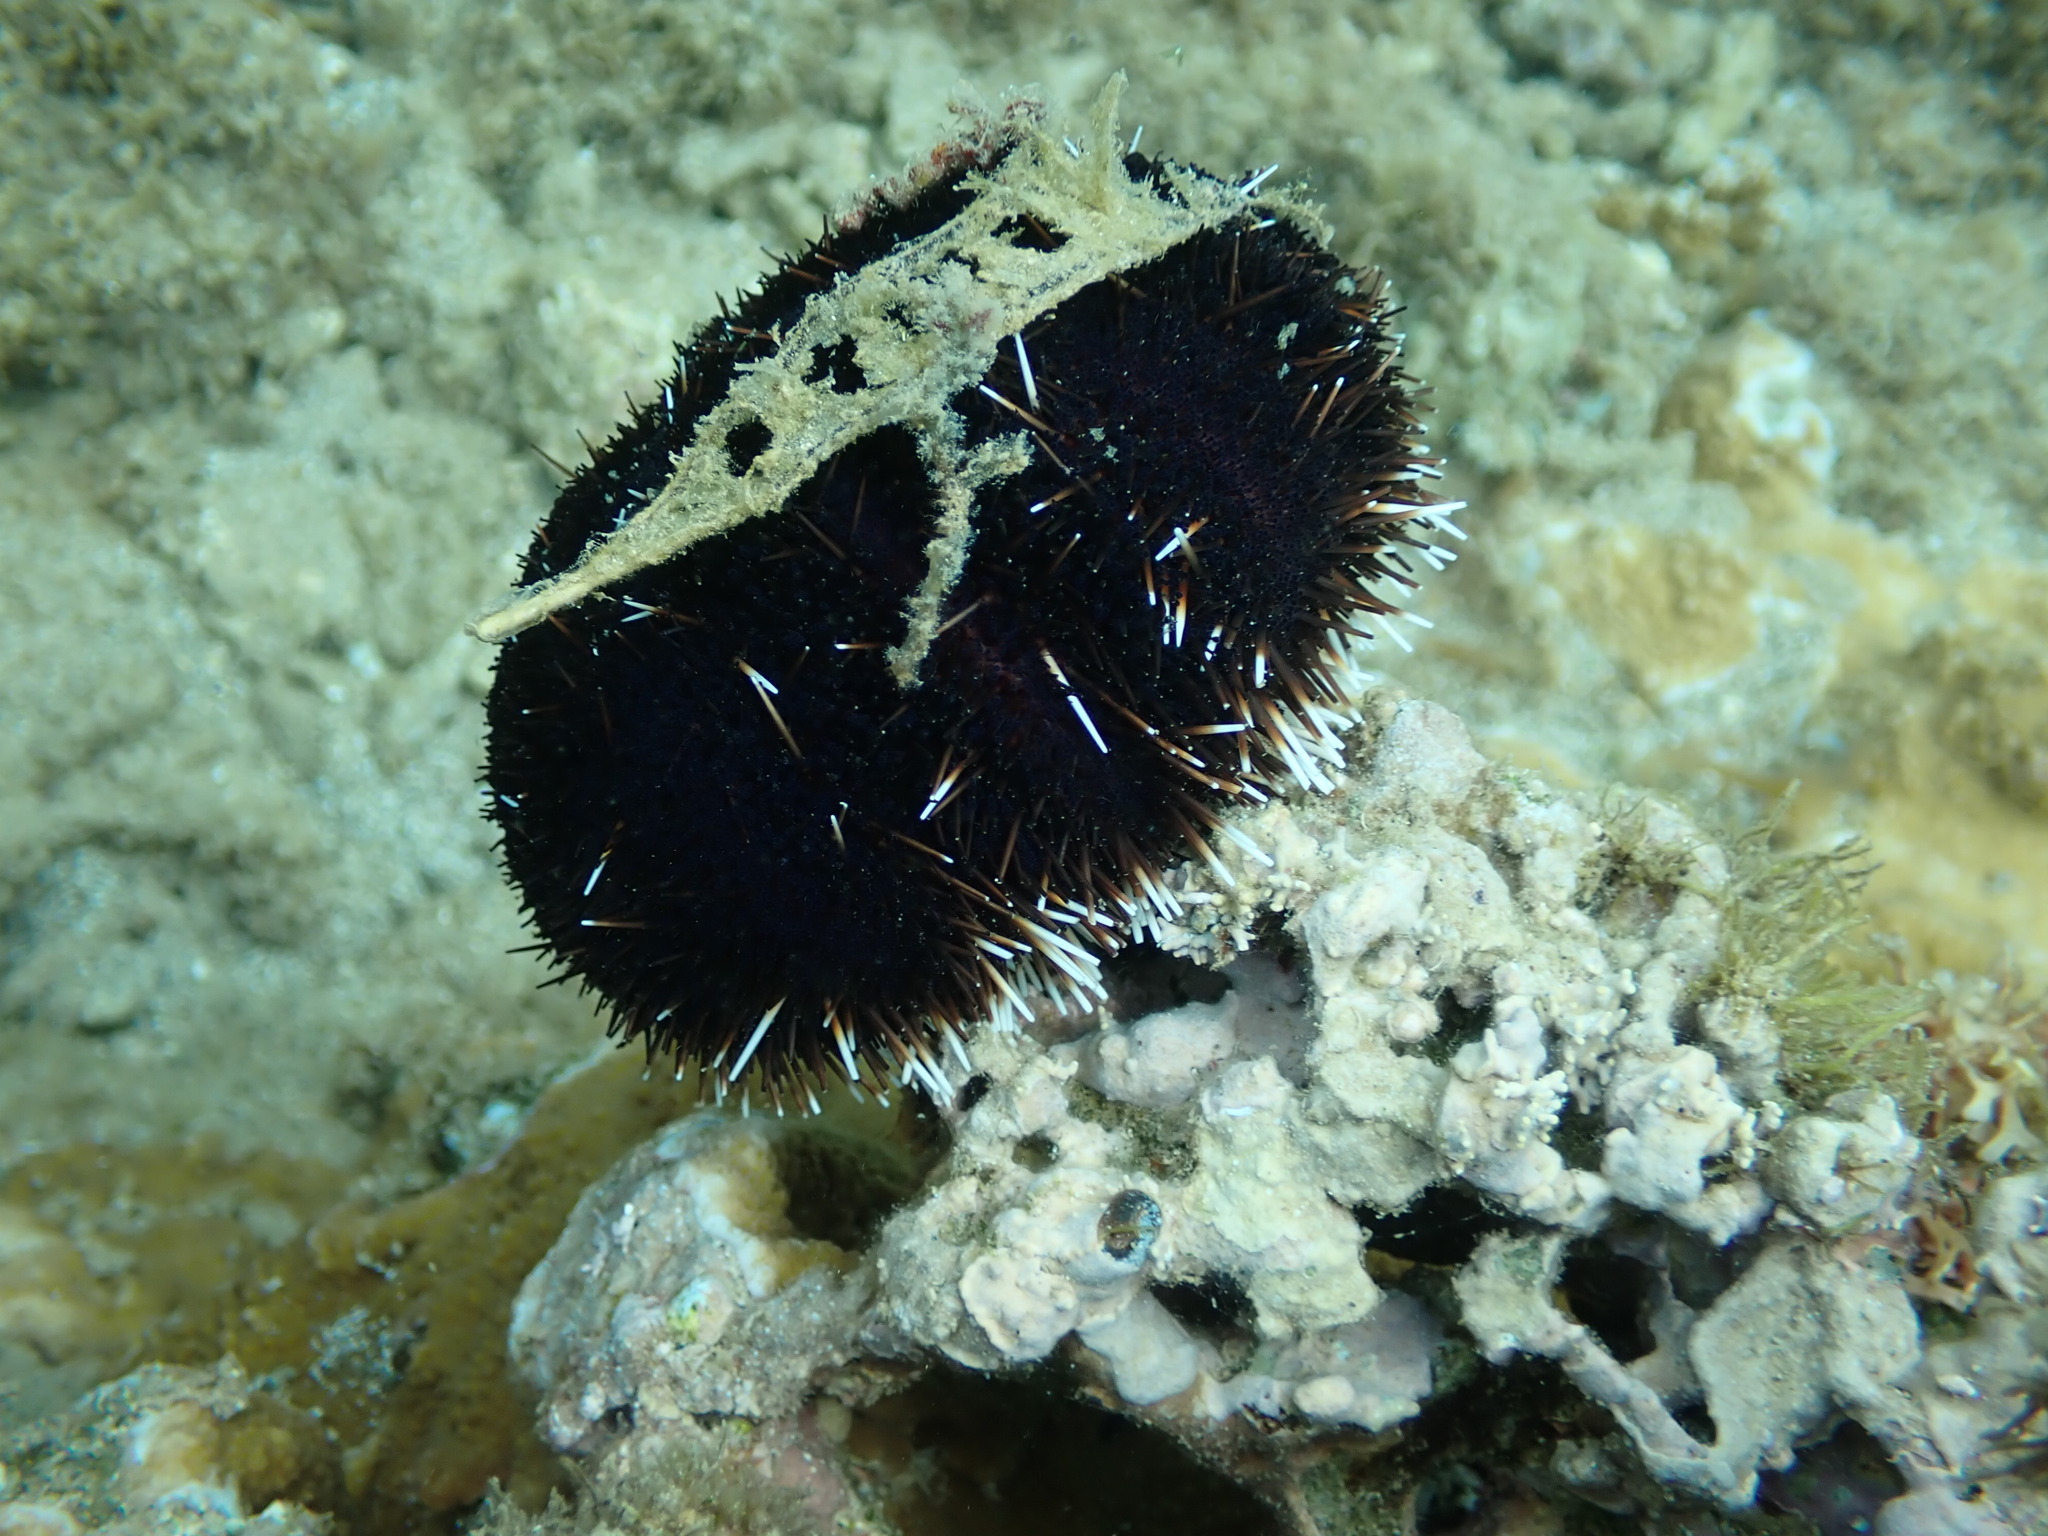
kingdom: Animalia
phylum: Echinodermata
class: Echinoidea
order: Camarodonta
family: Toxopneustidae
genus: Tripneustes
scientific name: Tripneustes gratilla
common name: Bischofsmützenseeigel
